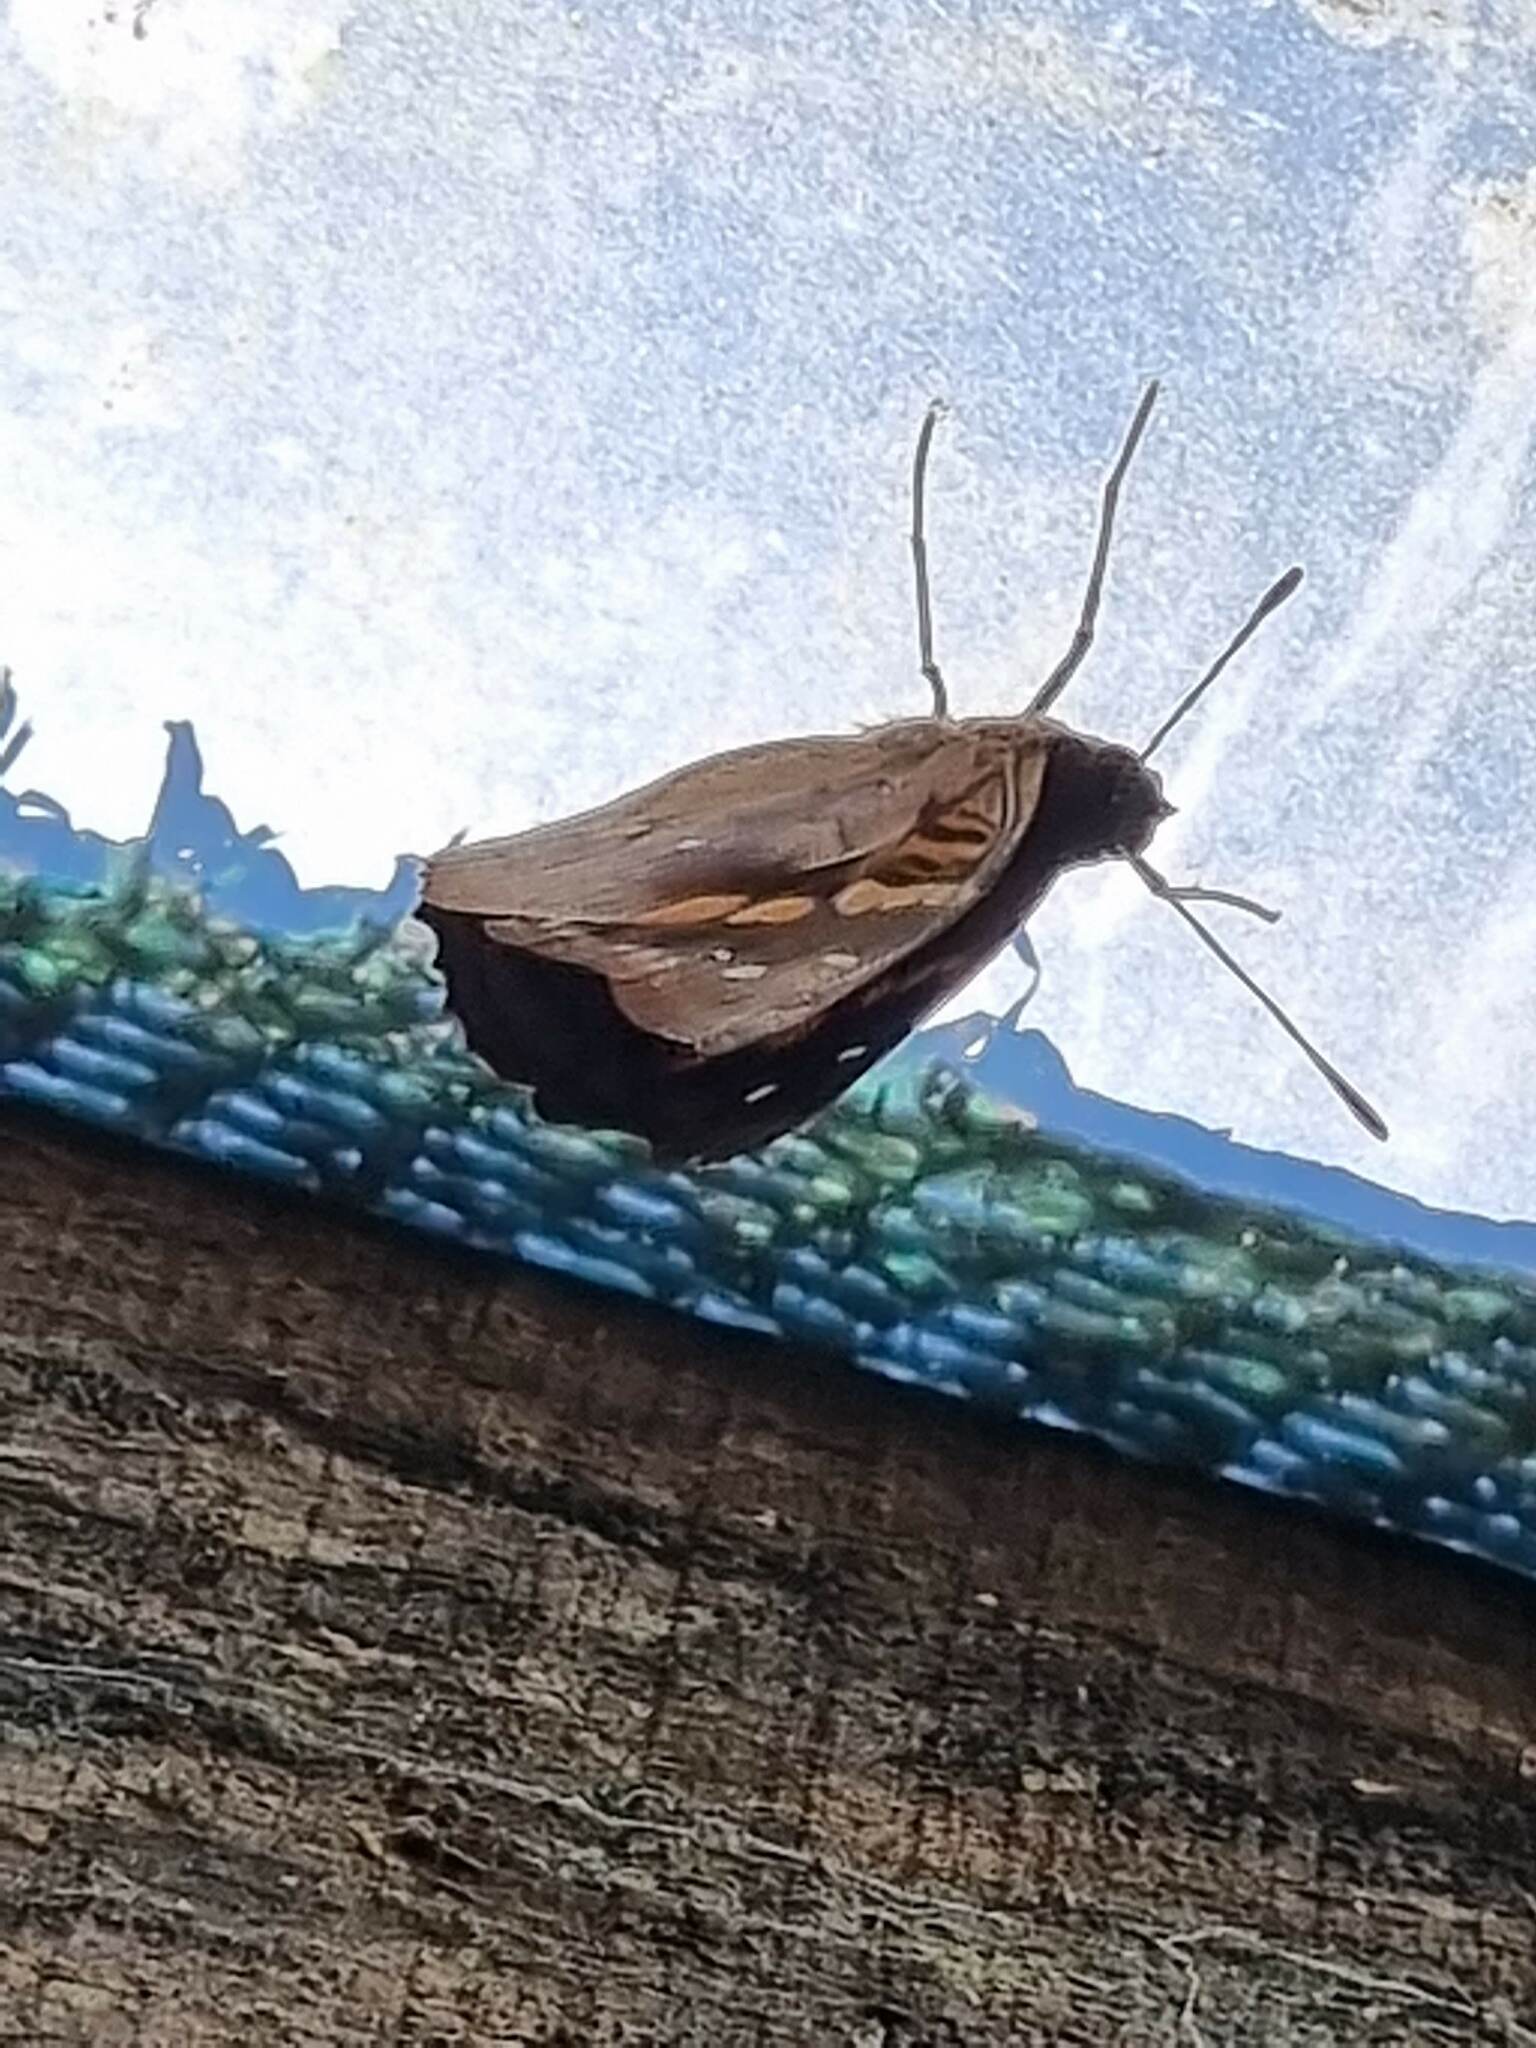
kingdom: Animalia
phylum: Arthropoda
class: Insecta
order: Lepidoptera
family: Nymphalidae
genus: Doxocopa
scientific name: Doxocopa agathina
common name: Agathina emperor
